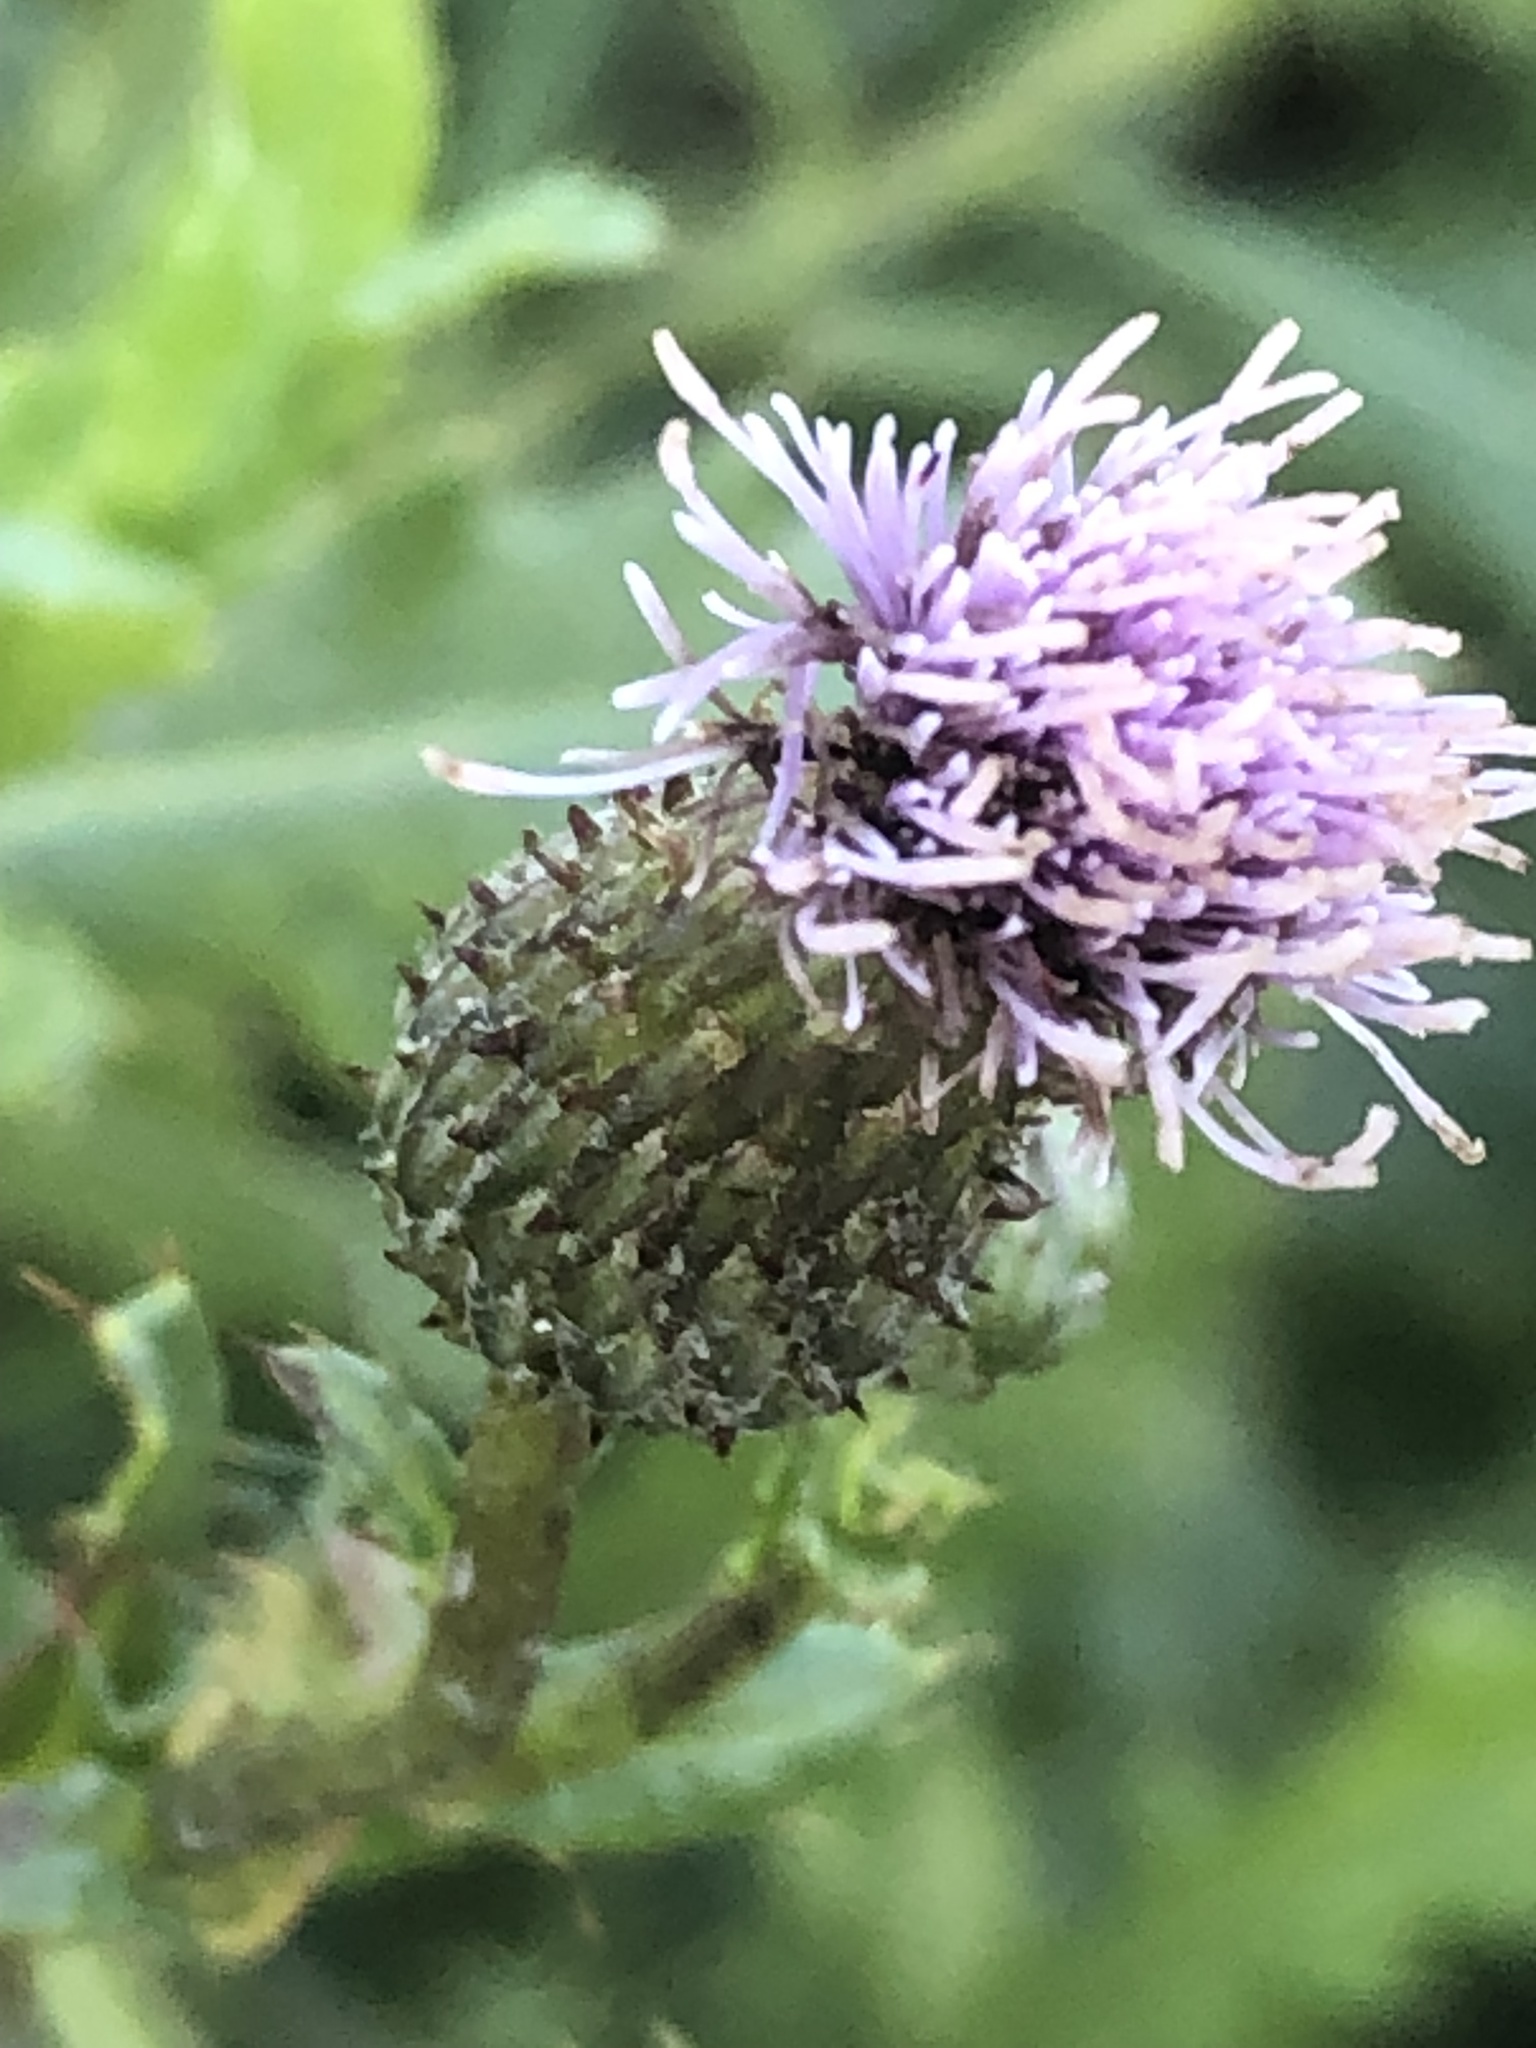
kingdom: Plantae
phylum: Tracheophyta
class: Magnoliopsida
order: Asterales
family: Asteraceae
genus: Cirsium
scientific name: Cirsium arvense
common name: Creeping thistle
